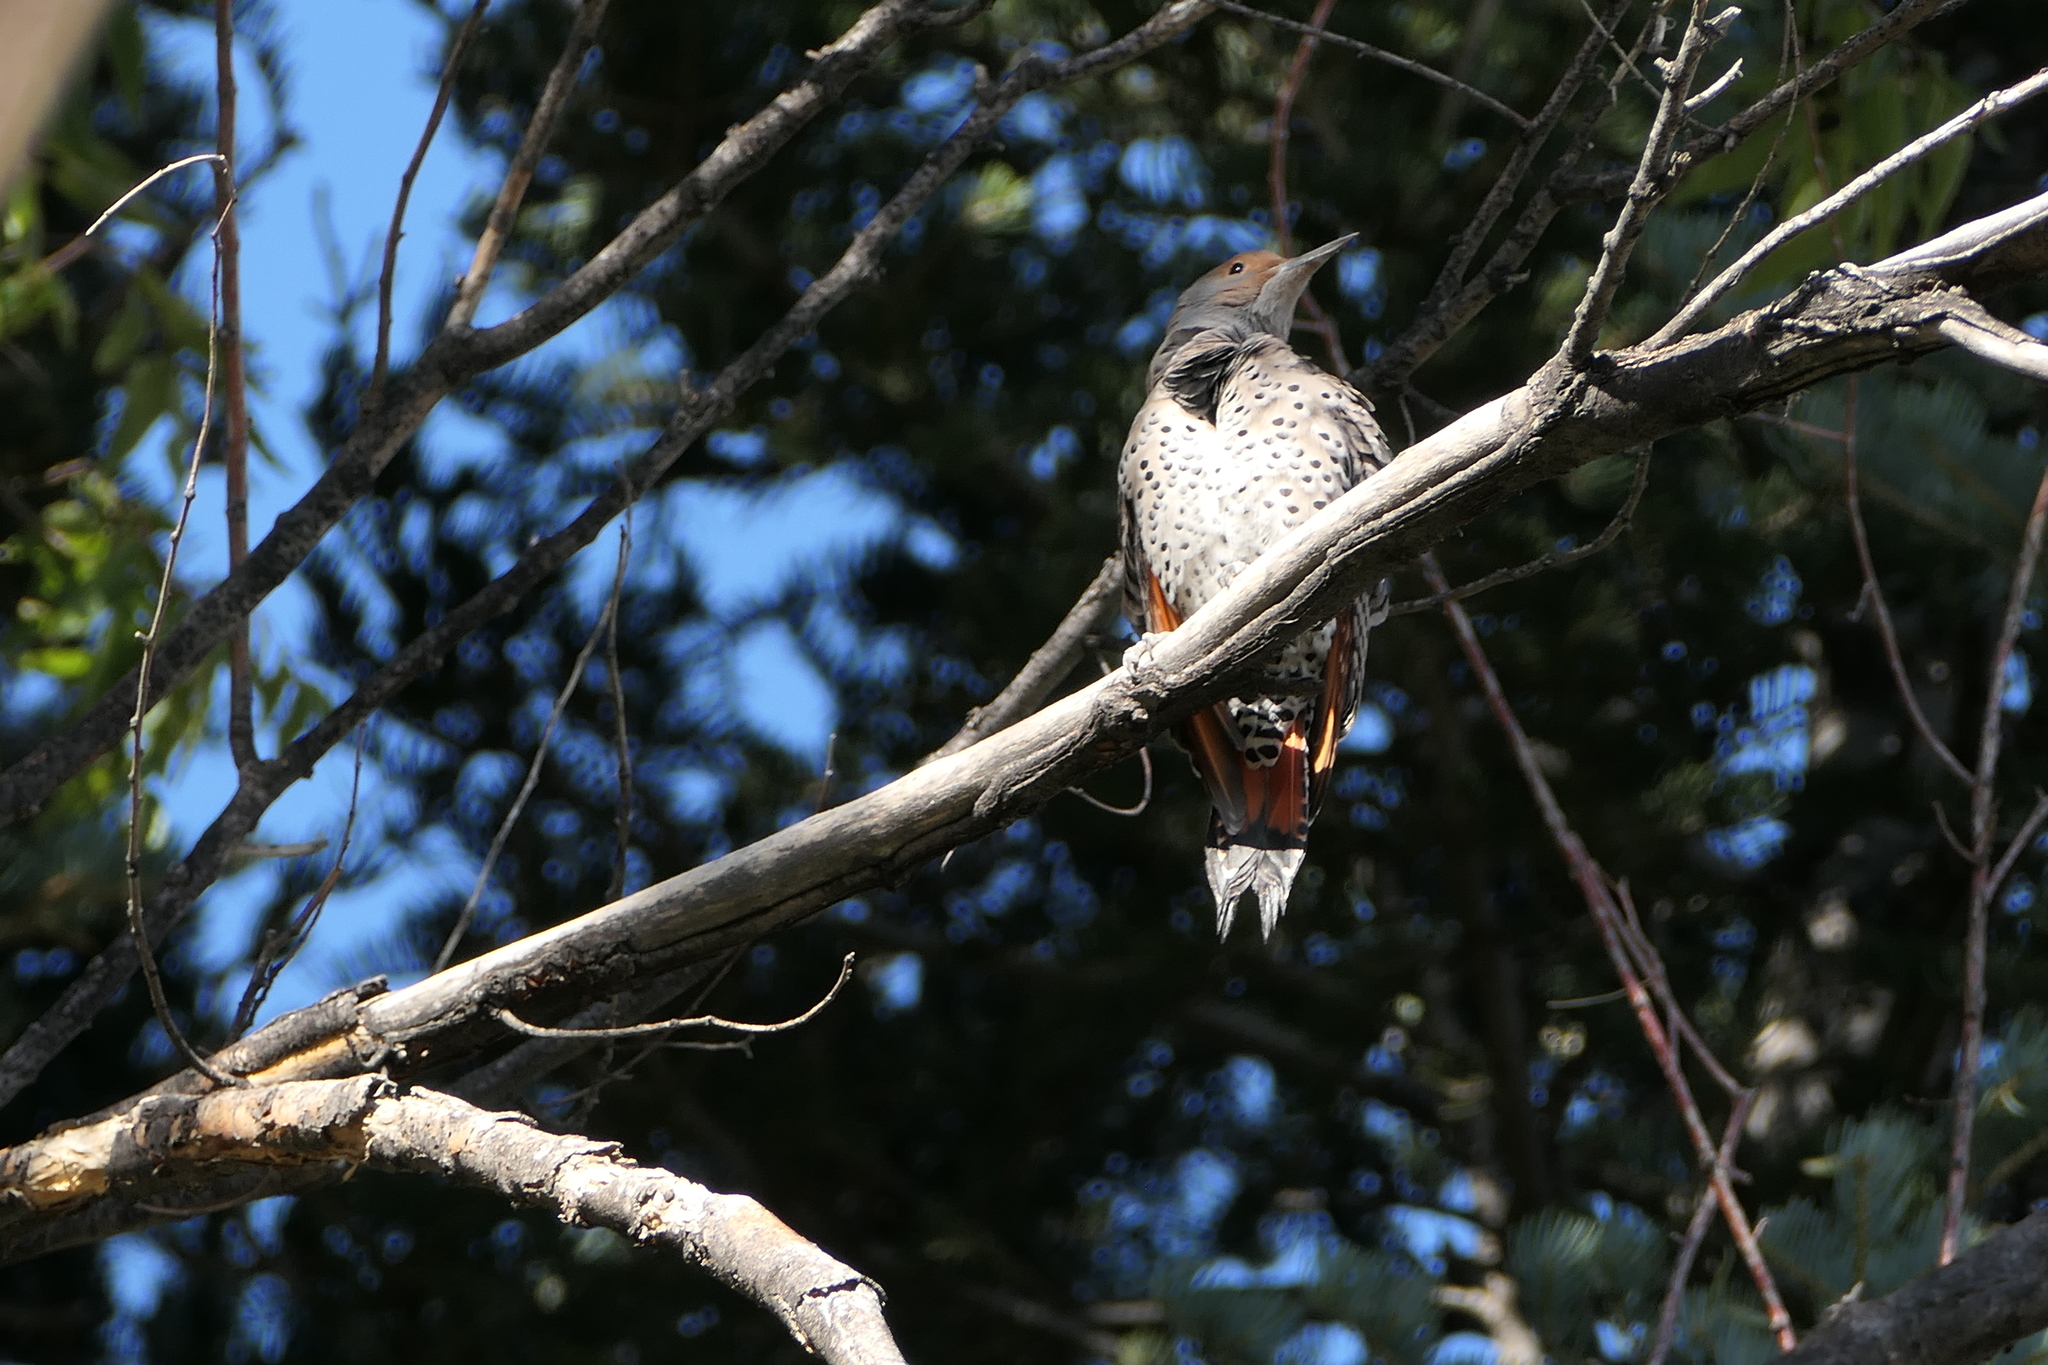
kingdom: Animalia
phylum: Chordata
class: Aves
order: Piciformes
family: Picidae
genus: Colaptes
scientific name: Colaptes auratus
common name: Northern flicker
